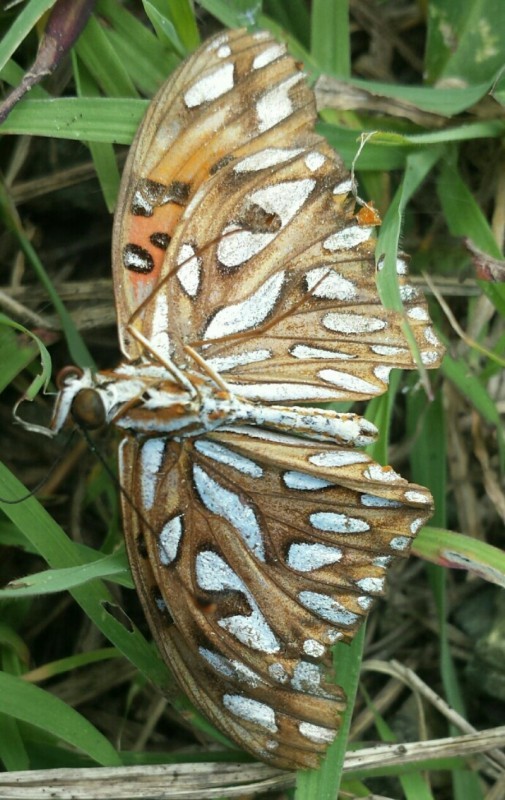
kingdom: Animalia
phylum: Arthropoda
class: Insecta
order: Lepidoptera
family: Nymphalidae
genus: Dione
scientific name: Dione vanillae
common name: Gulf fritillary
